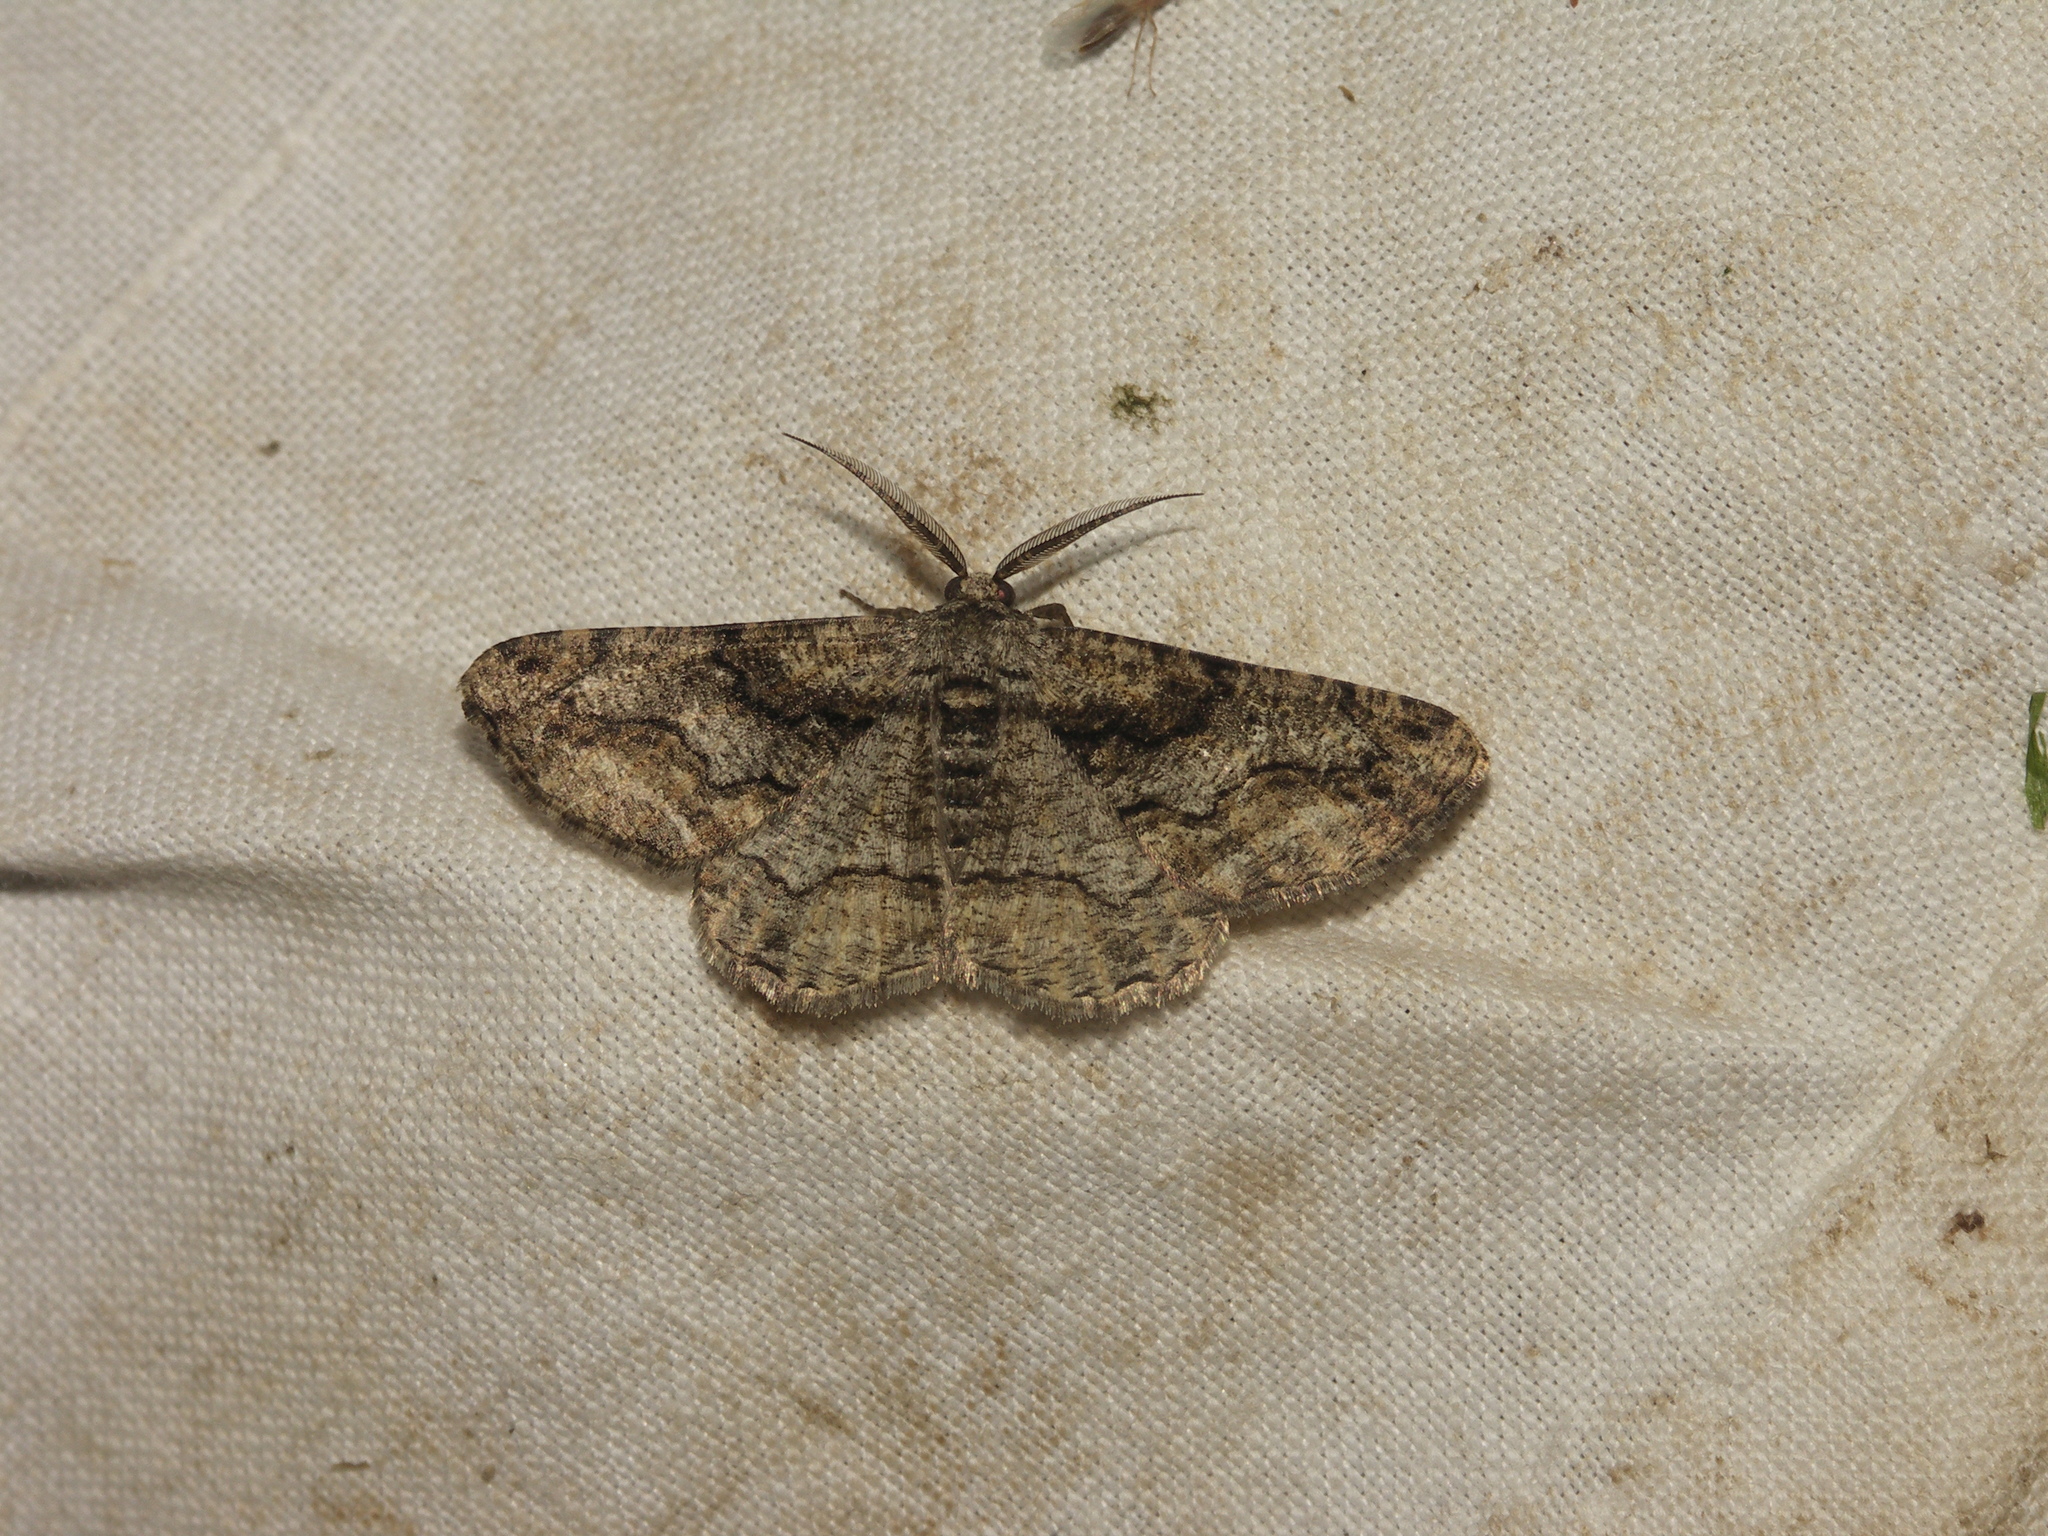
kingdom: Animalia
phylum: Arthropoda
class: Insecta
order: Lepidoptera
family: Geometridae
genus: Synopsia
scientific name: Synopsia sociaria
